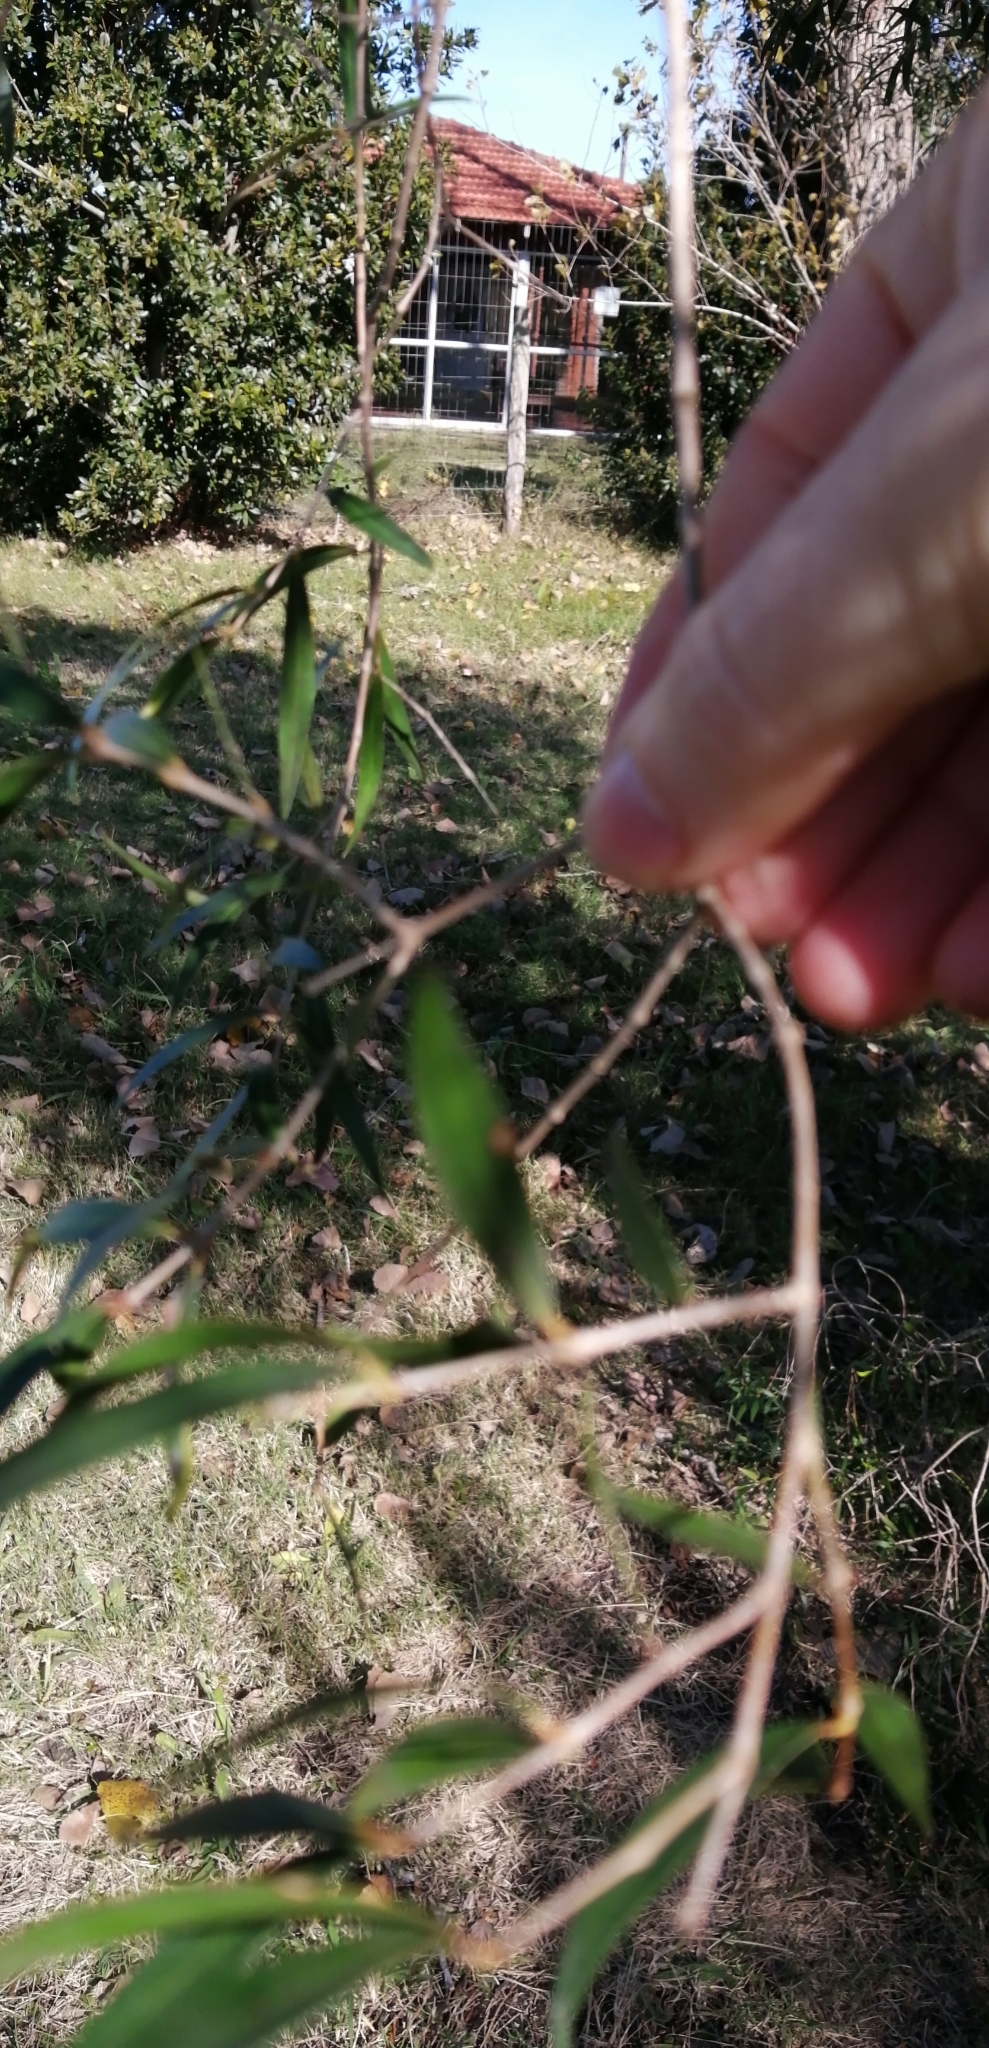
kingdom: Plantae
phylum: Tracheophyta
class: Magnoliopsida
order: Myrtales
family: Myrtaceae
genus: Blepharocalyx
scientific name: Blepharocalyx salicifolius
